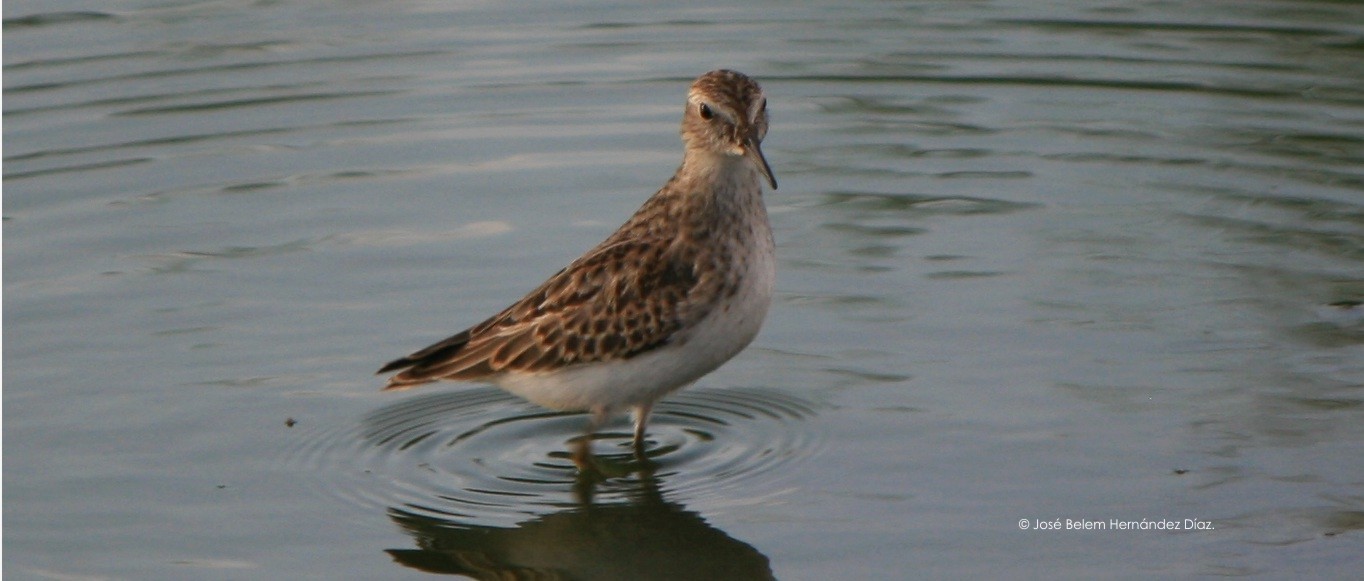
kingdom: Animalia
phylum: Chordata
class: Aves
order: Charadriiformes
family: Scolopacidae
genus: Calidris
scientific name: Calidris minutilla
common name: Least sandpiper
